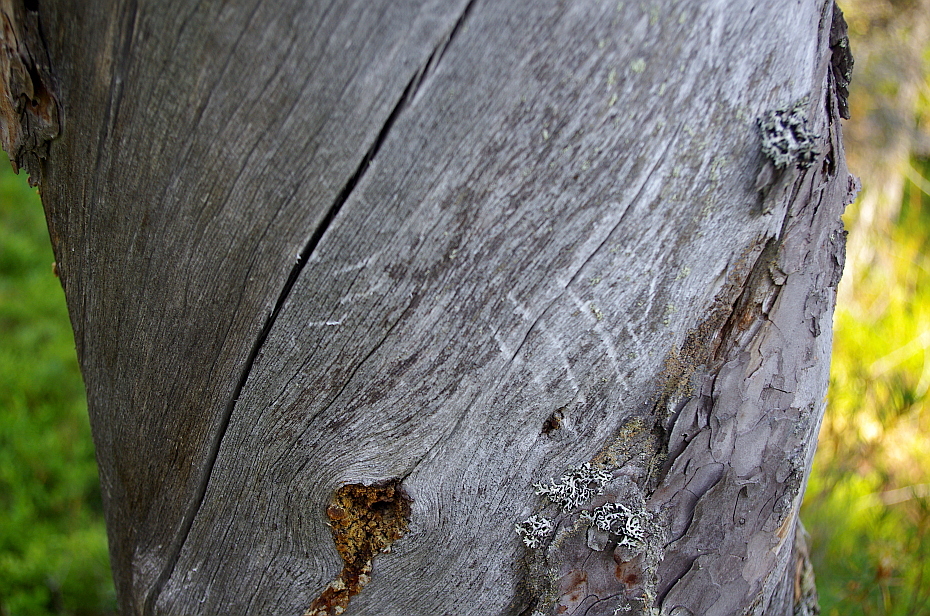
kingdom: Animalia
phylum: Chordata
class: Mammalia
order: Carnivora
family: Ursidae
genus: Ursus
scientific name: Ursus arctos
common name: Brown bear
